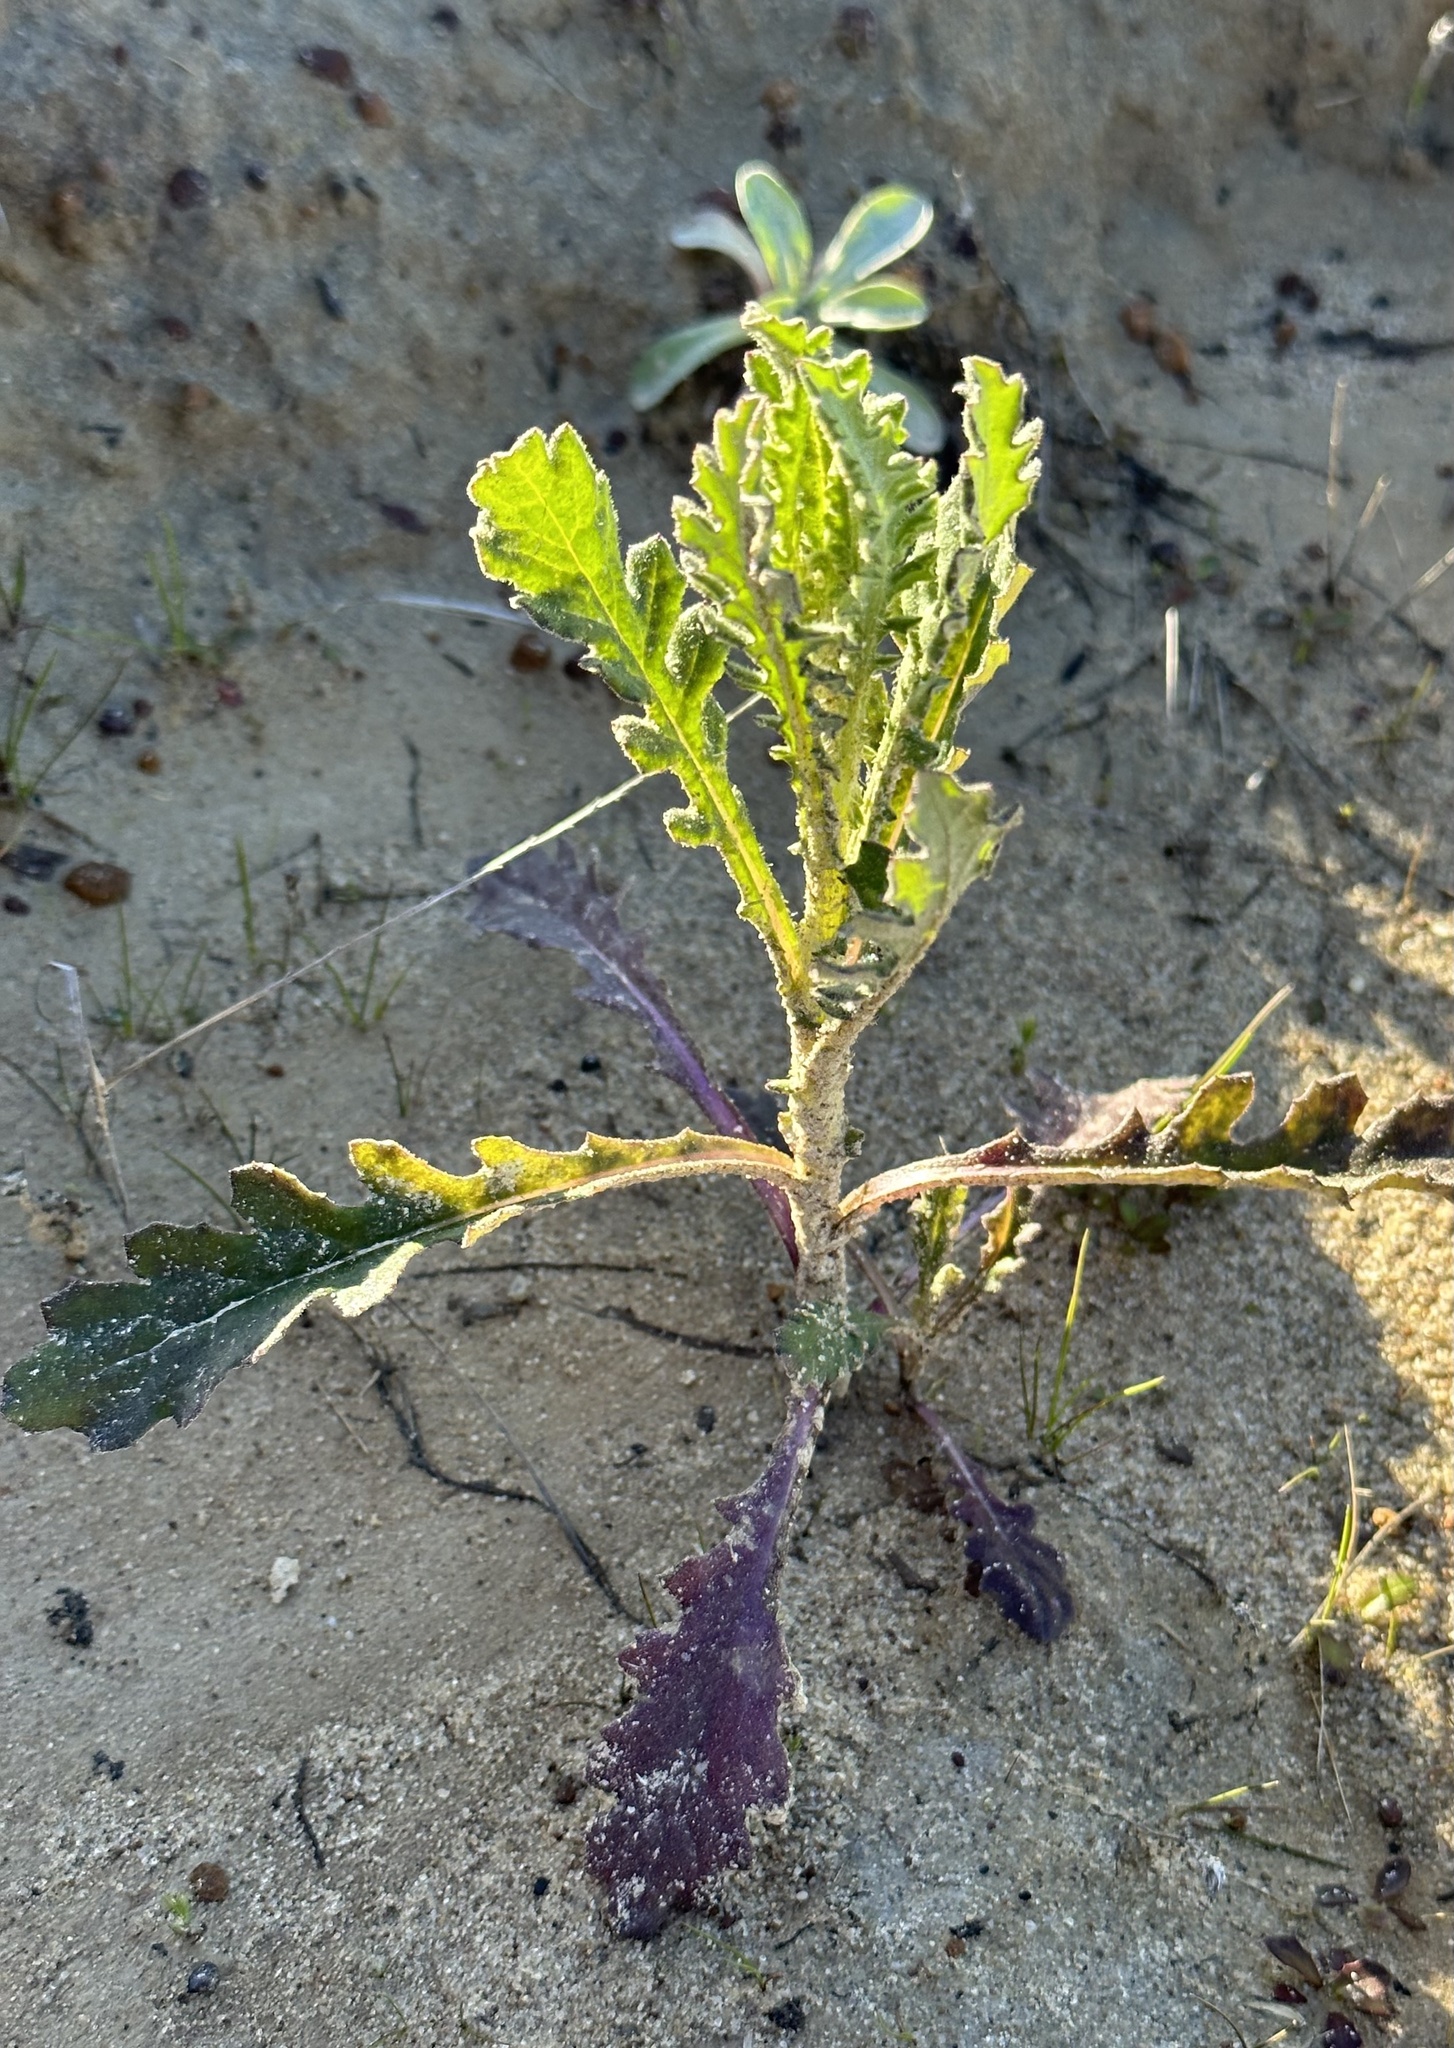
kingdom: Plantae
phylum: Tracheophyta
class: Magnoliopsida
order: Asterales
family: Asteraceae
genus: Senecio
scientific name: Senecio glomeratus
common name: Cutleaf burnweed
